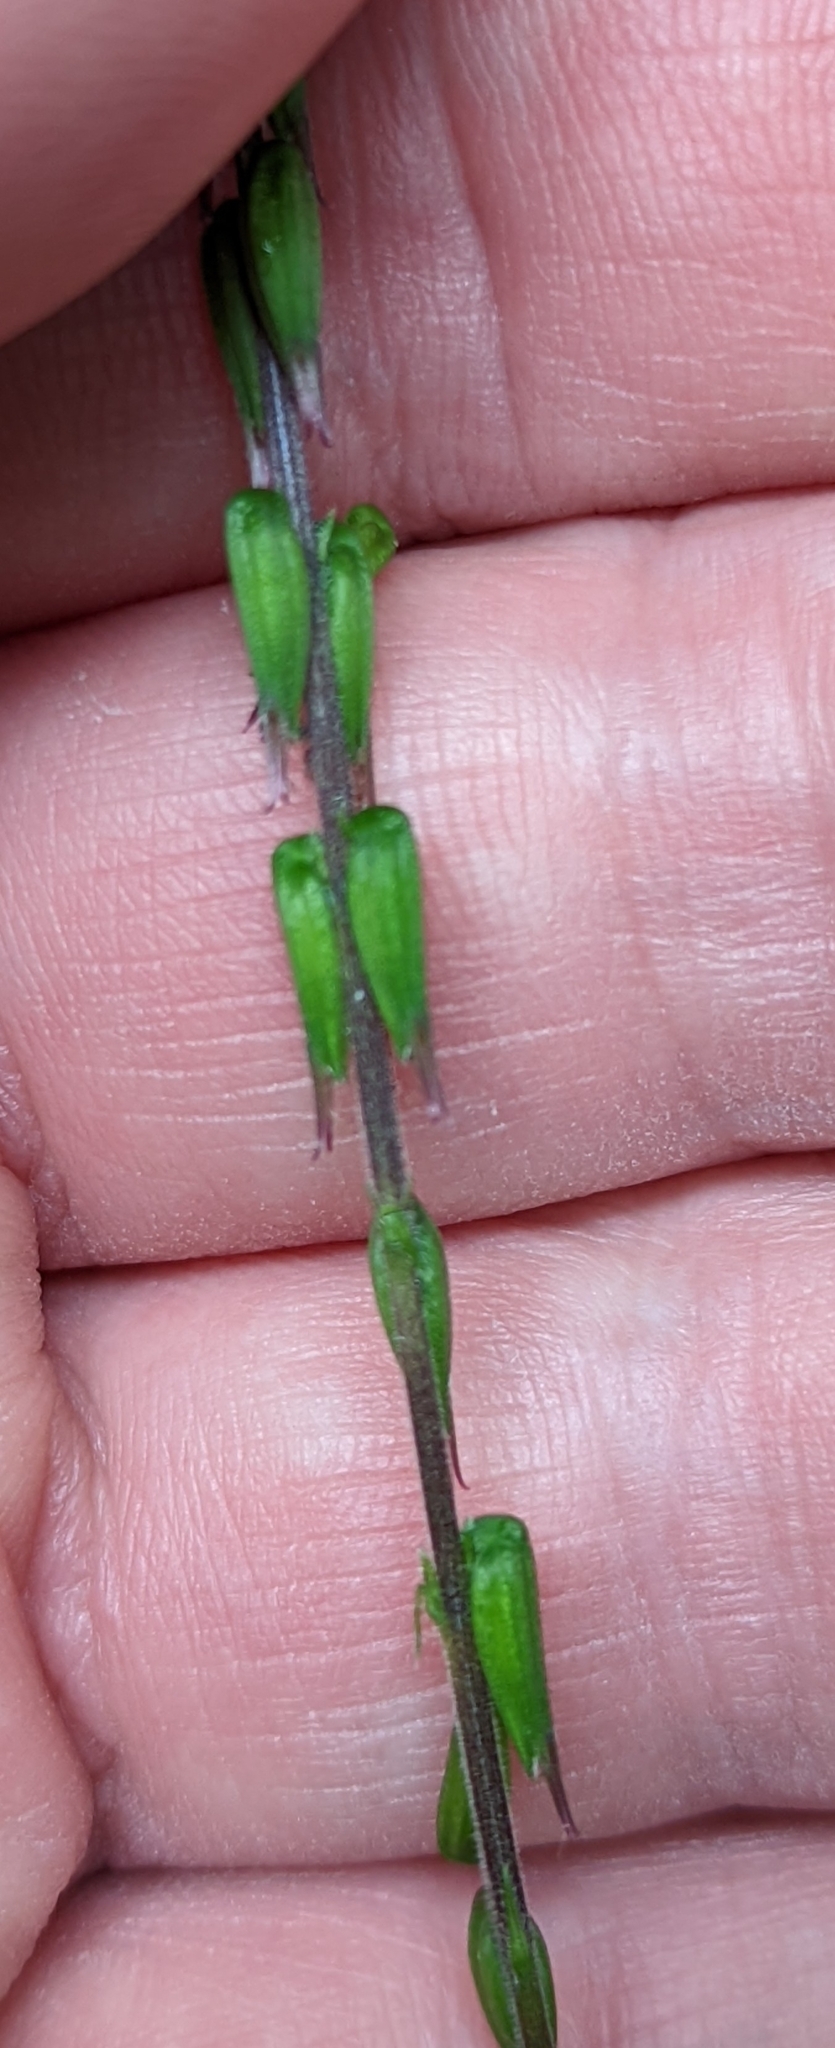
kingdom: Plantae
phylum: Tracheophyta
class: Magnoliopsida
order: Lamiales
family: Phrymaceae
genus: Phryma
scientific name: Phryma leptostachya
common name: American lopseed
